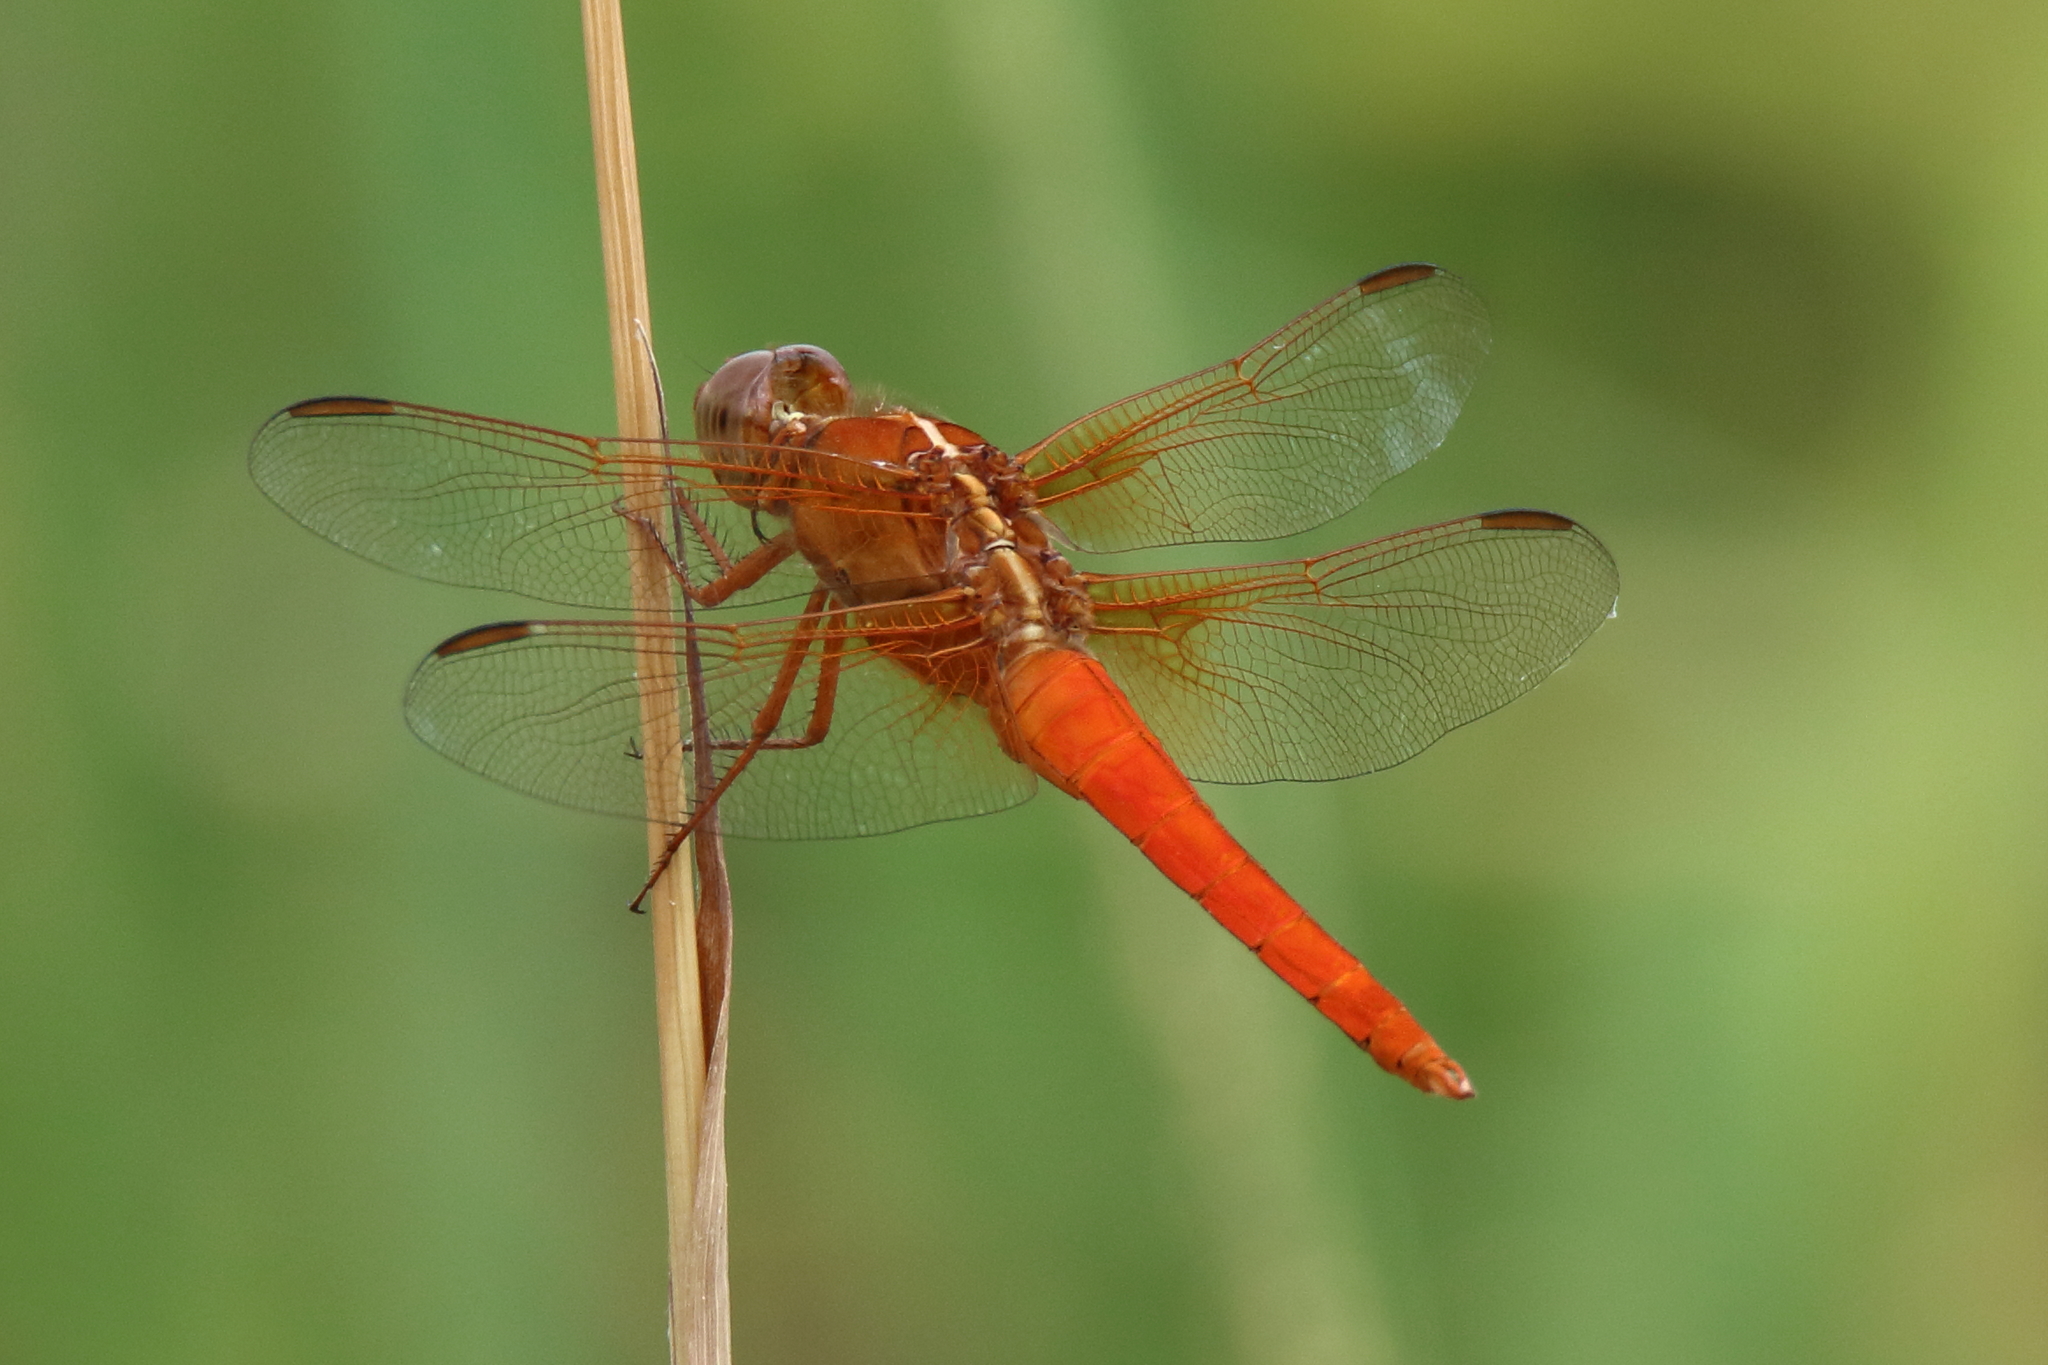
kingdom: Animalia
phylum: Arthropoda
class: Insecta
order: Odonata
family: Libellulidae
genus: Libellula
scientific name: Libellula croceipennis
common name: Neon skimmer
